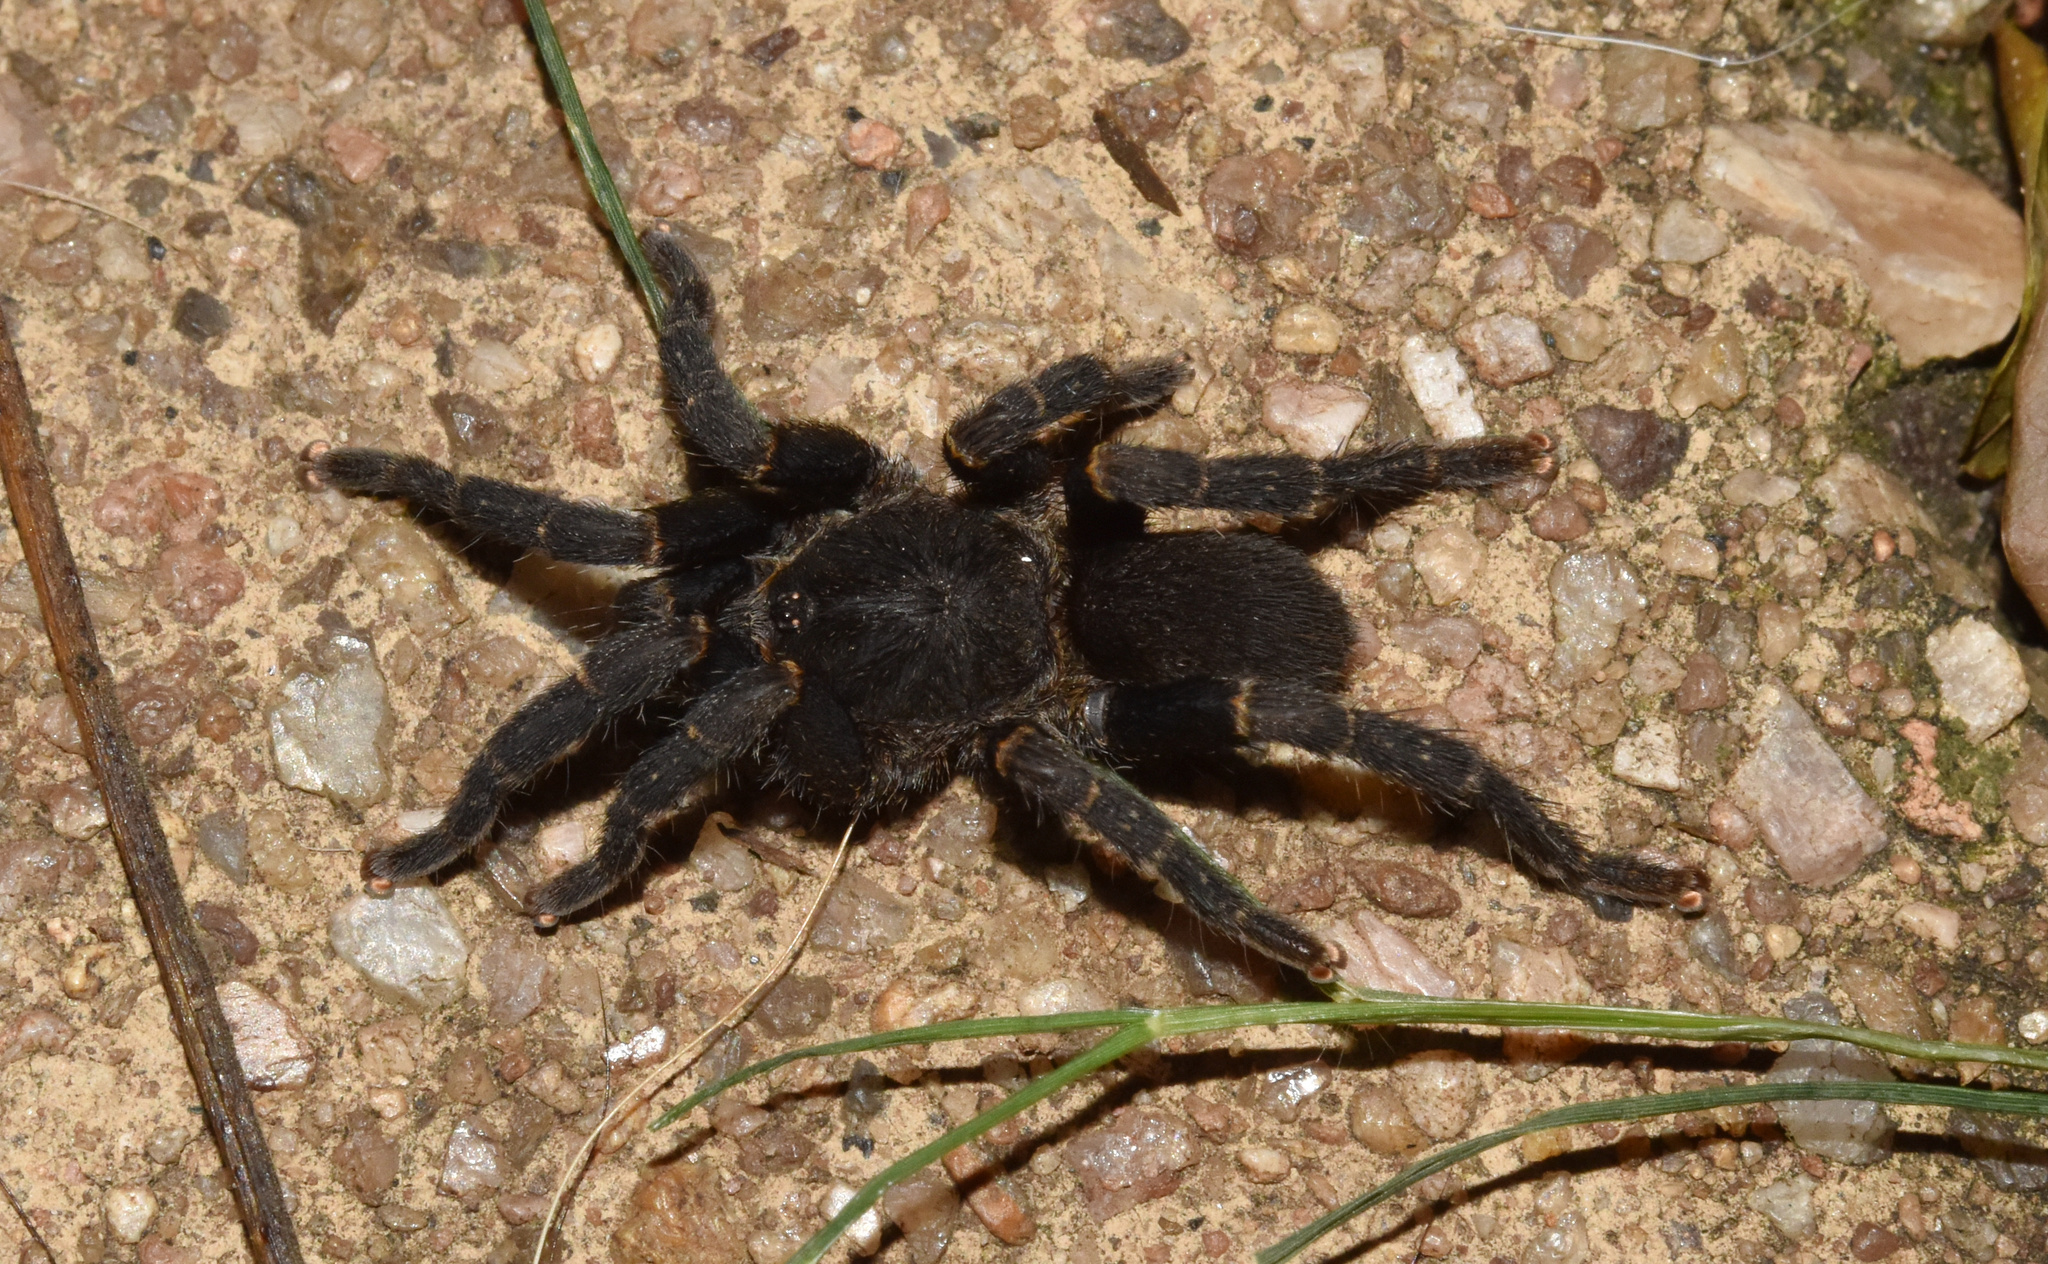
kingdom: Animalia
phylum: Arthropoda
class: Arachnida
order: Araneae
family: Theraphosidae
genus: Brachionopus
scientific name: Brachionopus robustus
